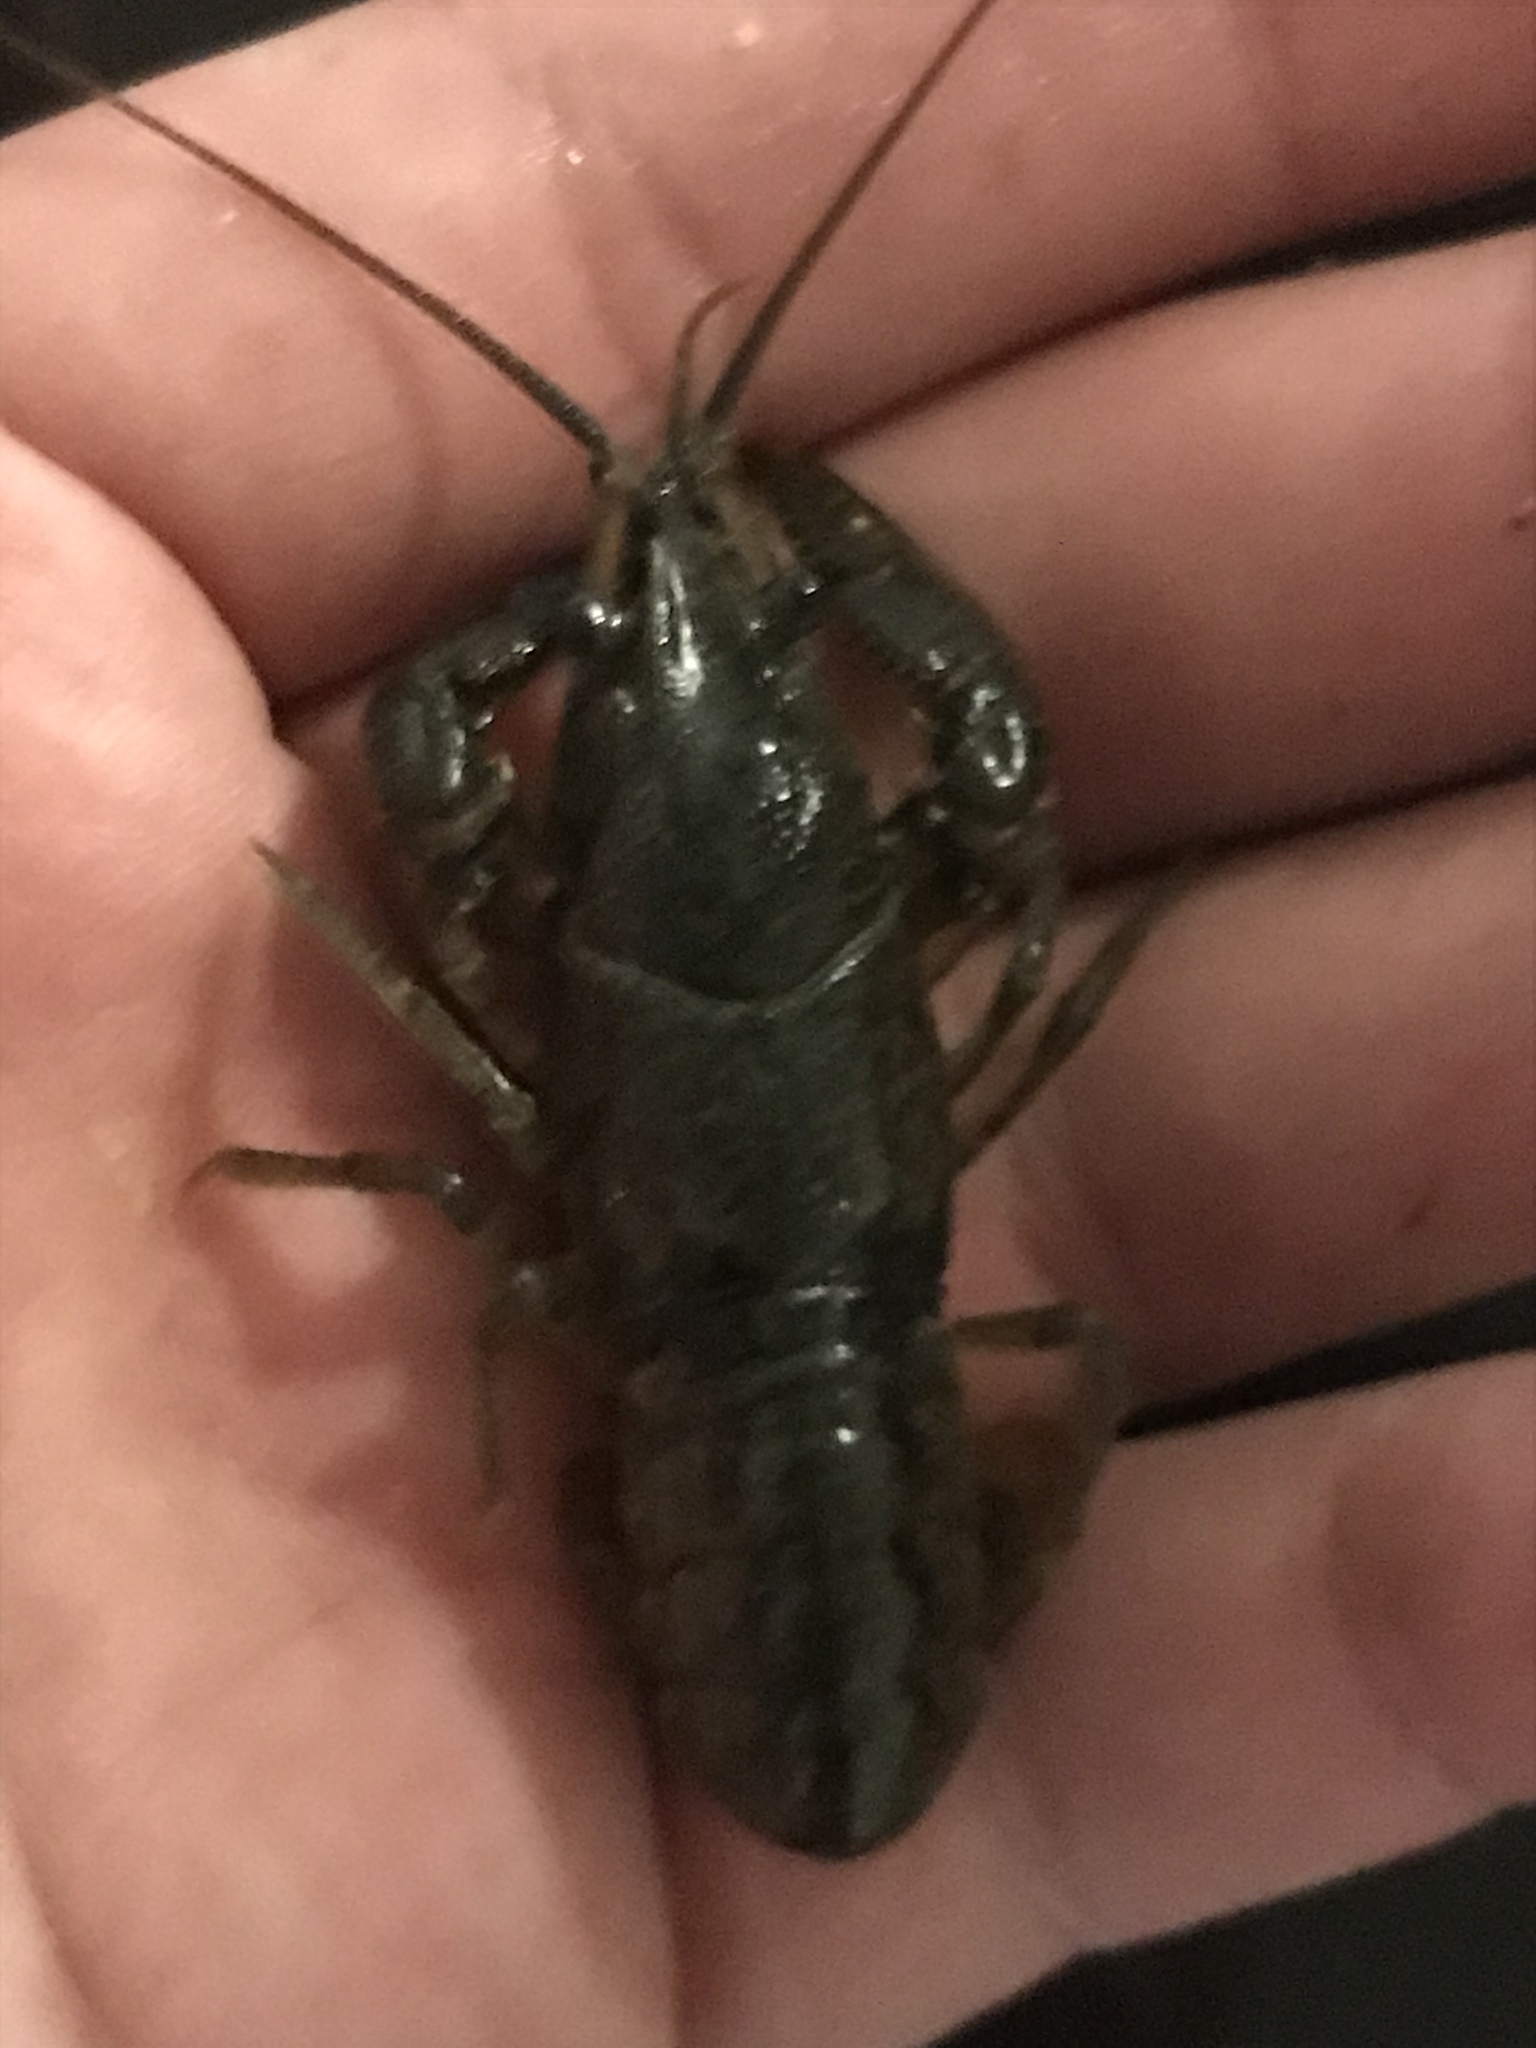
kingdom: Animalia
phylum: Arthropoda
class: Malacostraca
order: Decapoda
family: Cambaridae
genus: Faxonius
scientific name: Faxonius virilis
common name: Virile crayfish
